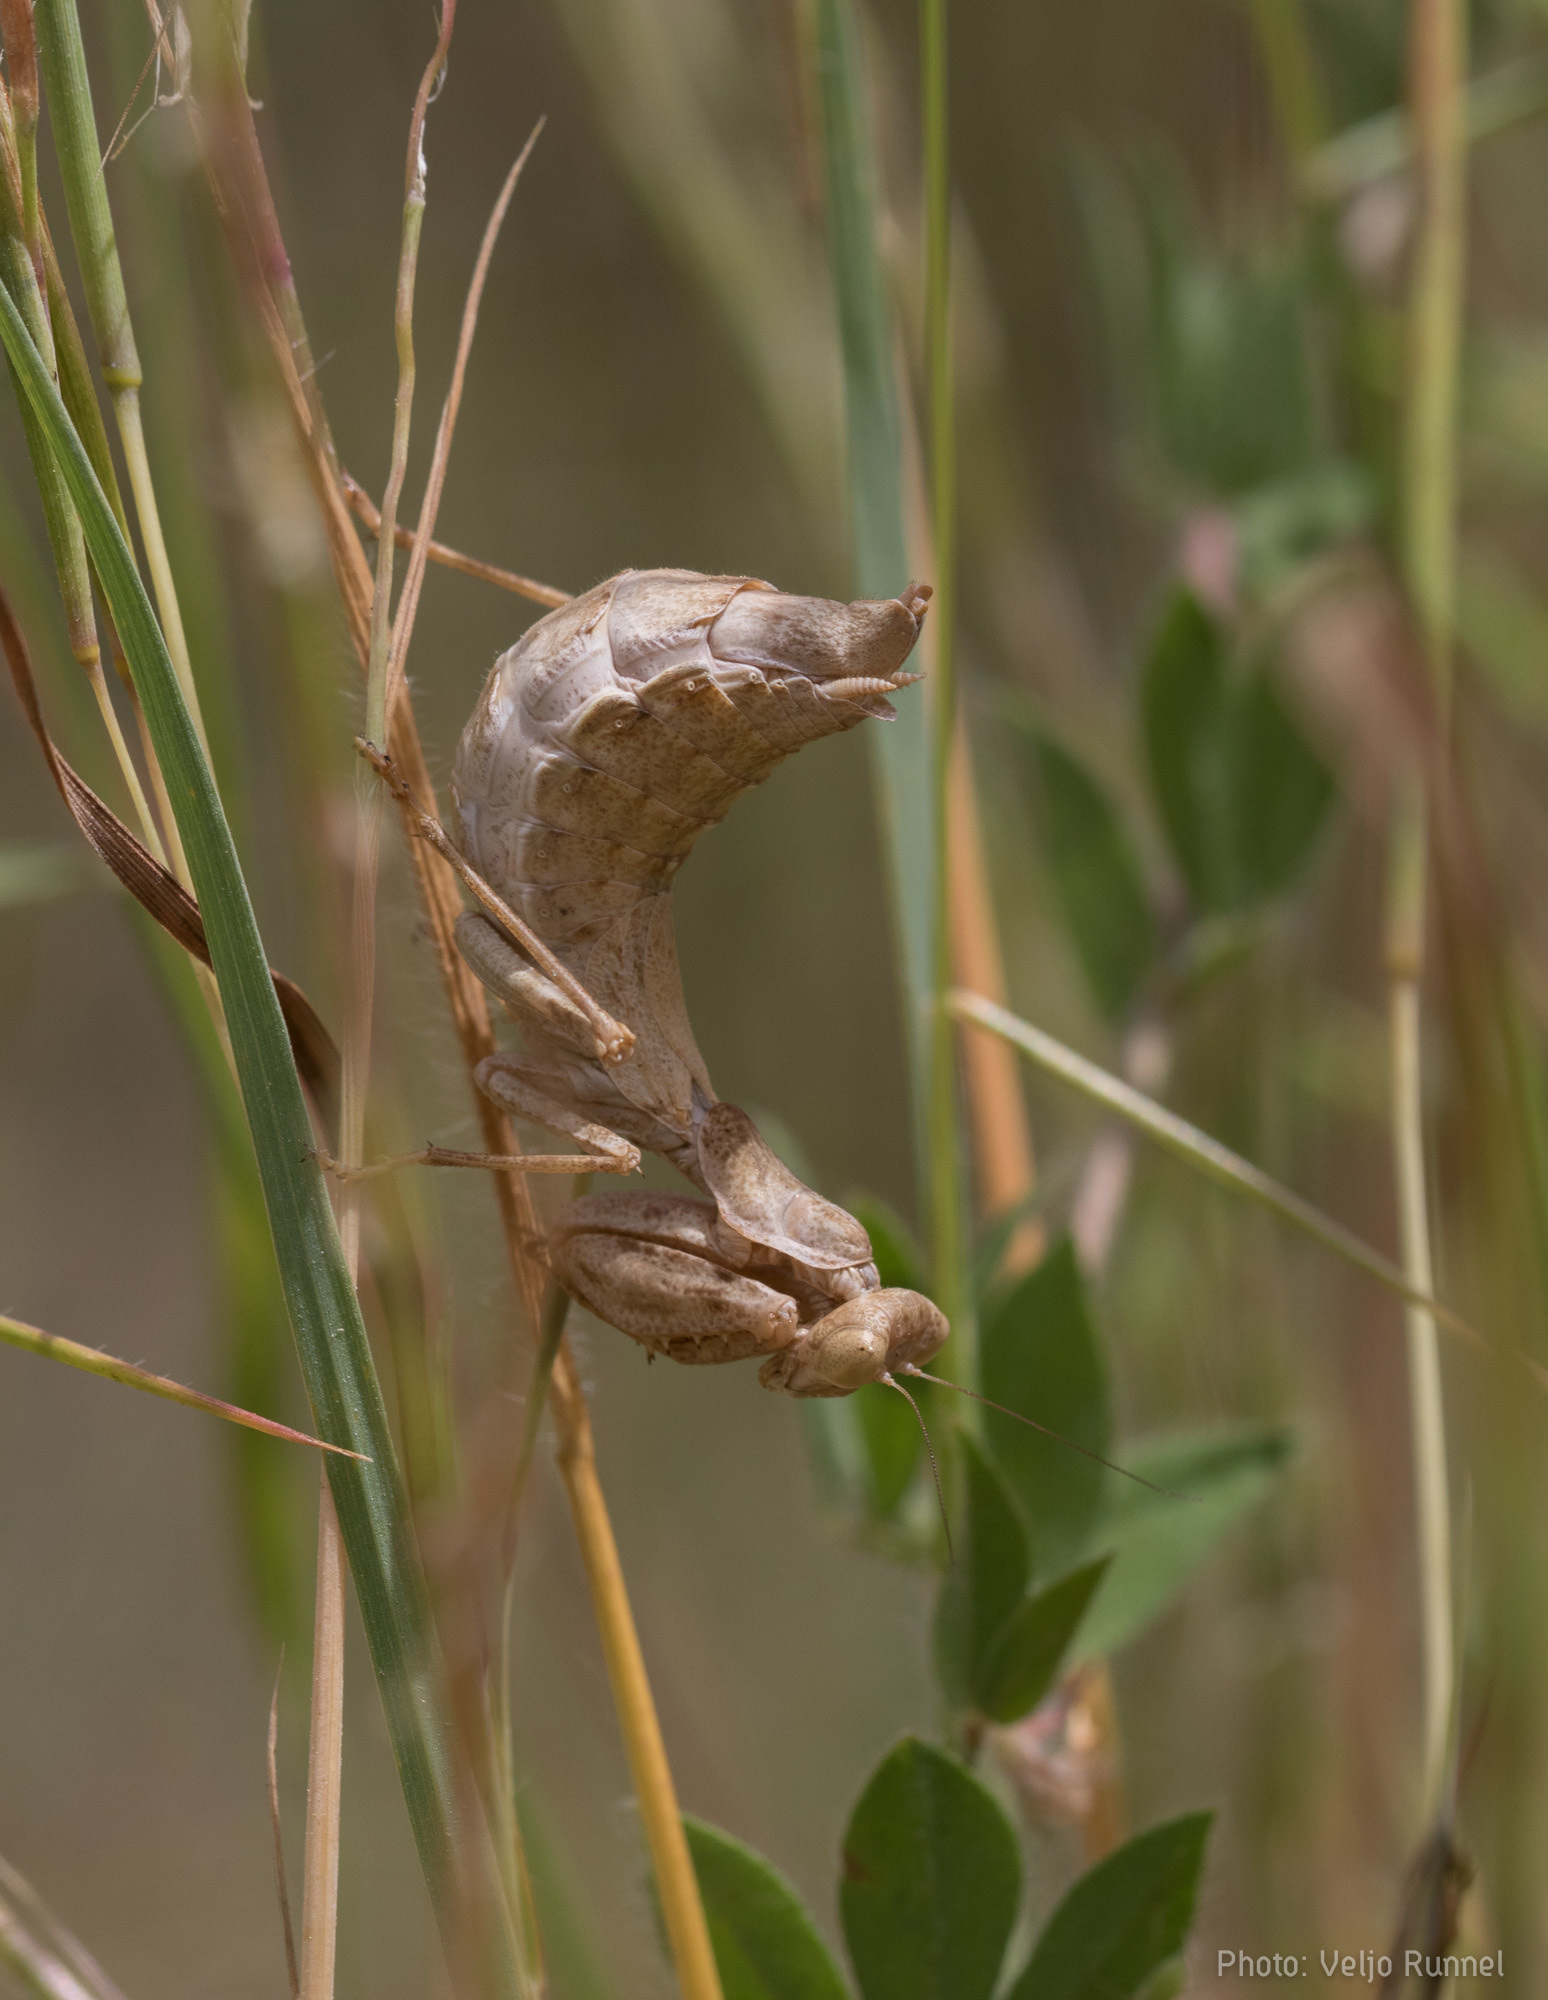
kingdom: Animalia
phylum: Arthropoda
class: Insecta
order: Mantodea
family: Amelidae
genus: Ameles
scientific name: Ameles spallanzania
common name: European dwarf mantis
